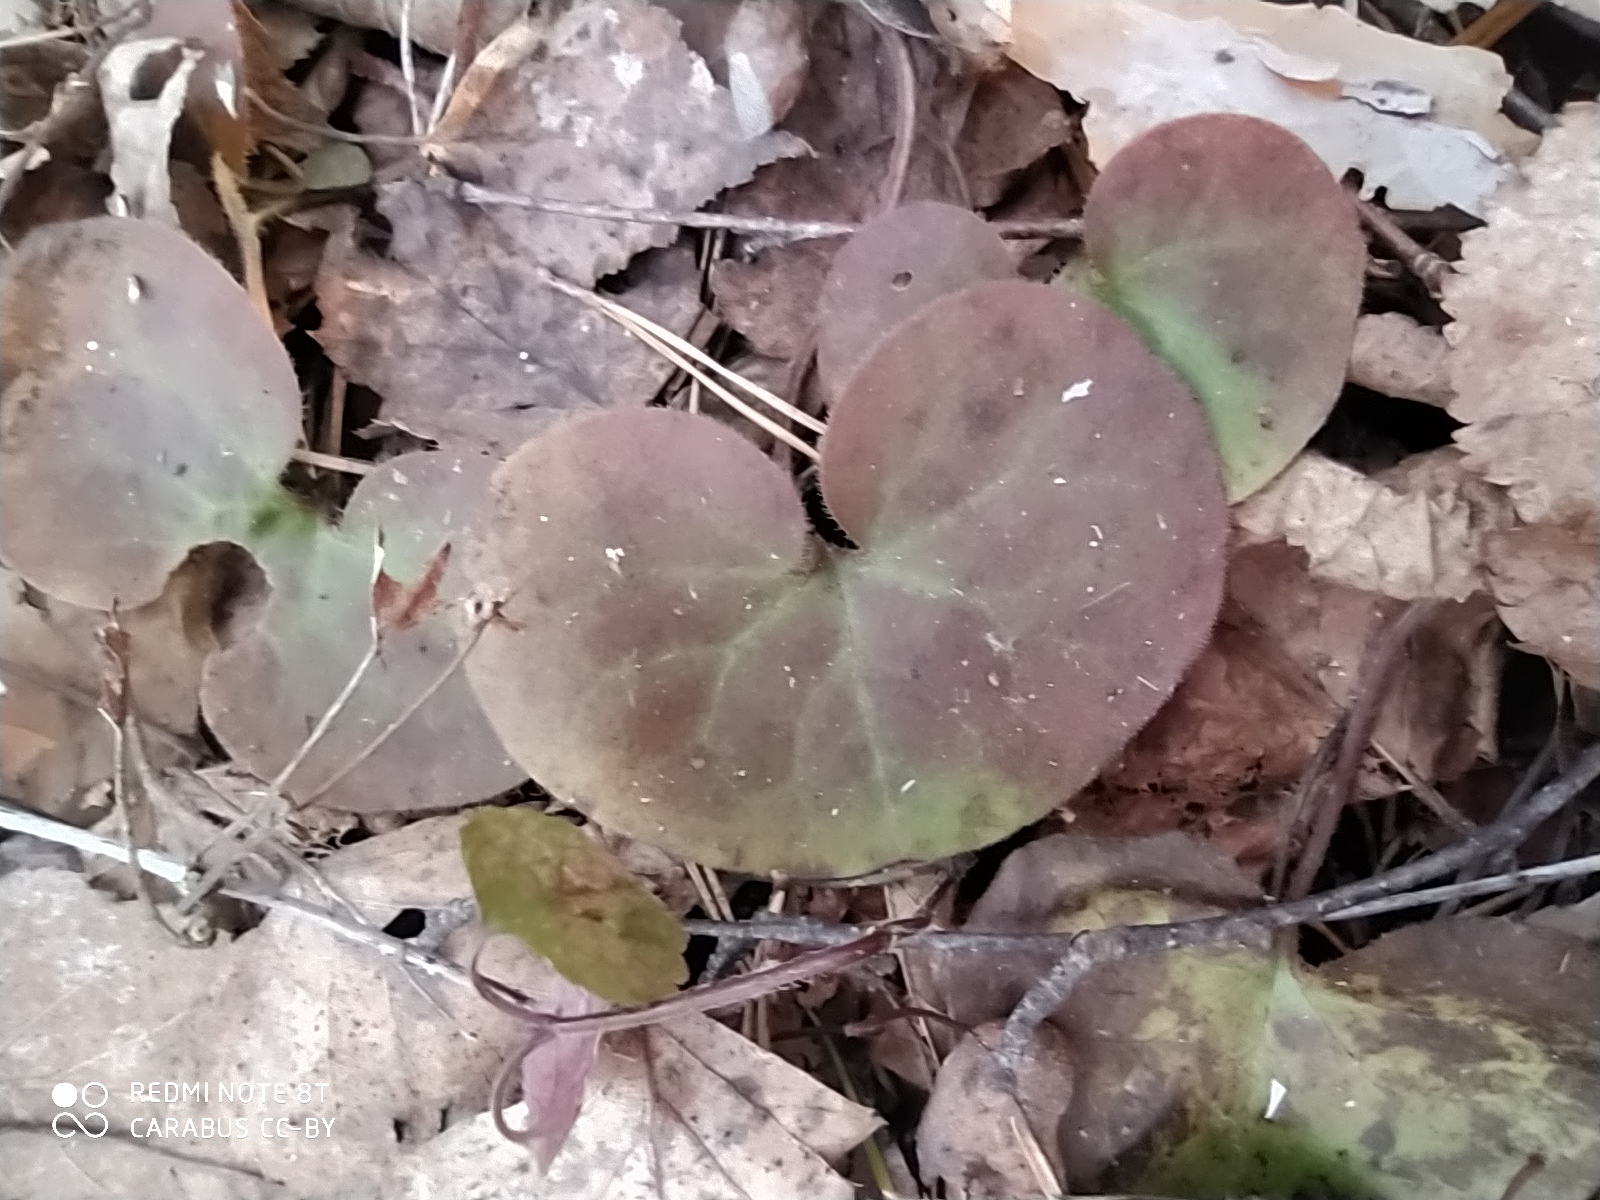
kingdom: Plantae
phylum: Tracheophyta
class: Magnoliopsida
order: Piperales
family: Aristolochiaceae
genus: Asarum
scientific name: Asarum europaeum
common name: Asarabacca
